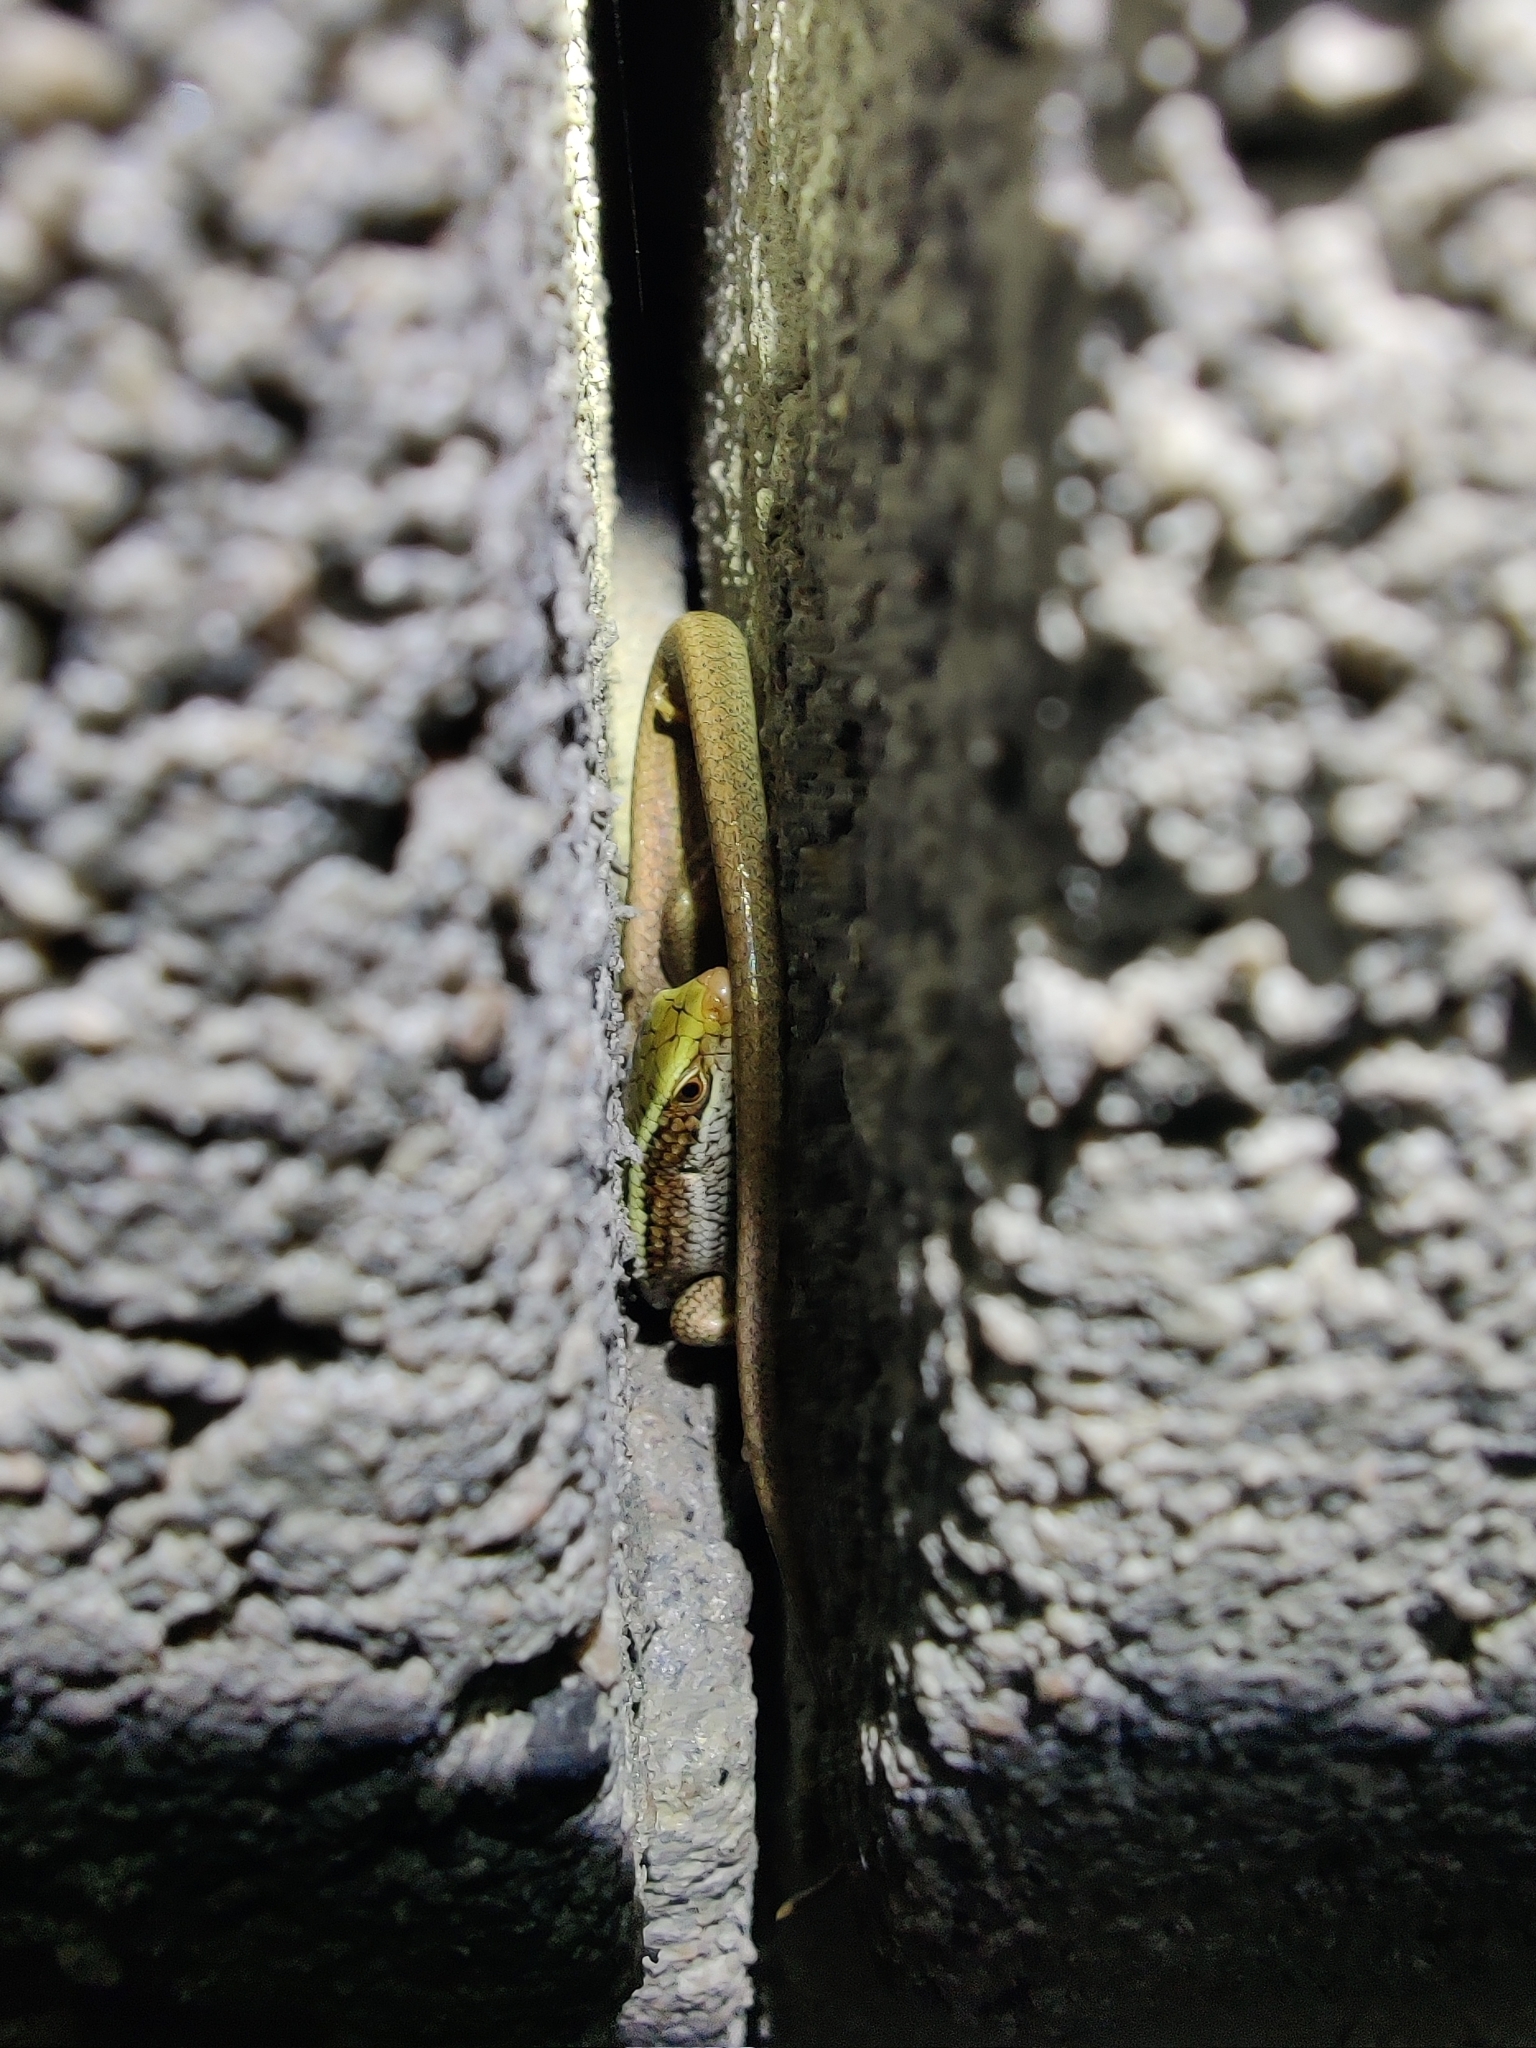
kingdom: Animalia
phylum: Chordata
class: Squamata
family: Scincidae
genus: Eutropis
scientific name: Eutropis carinata
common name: Keeled indian mabuya
